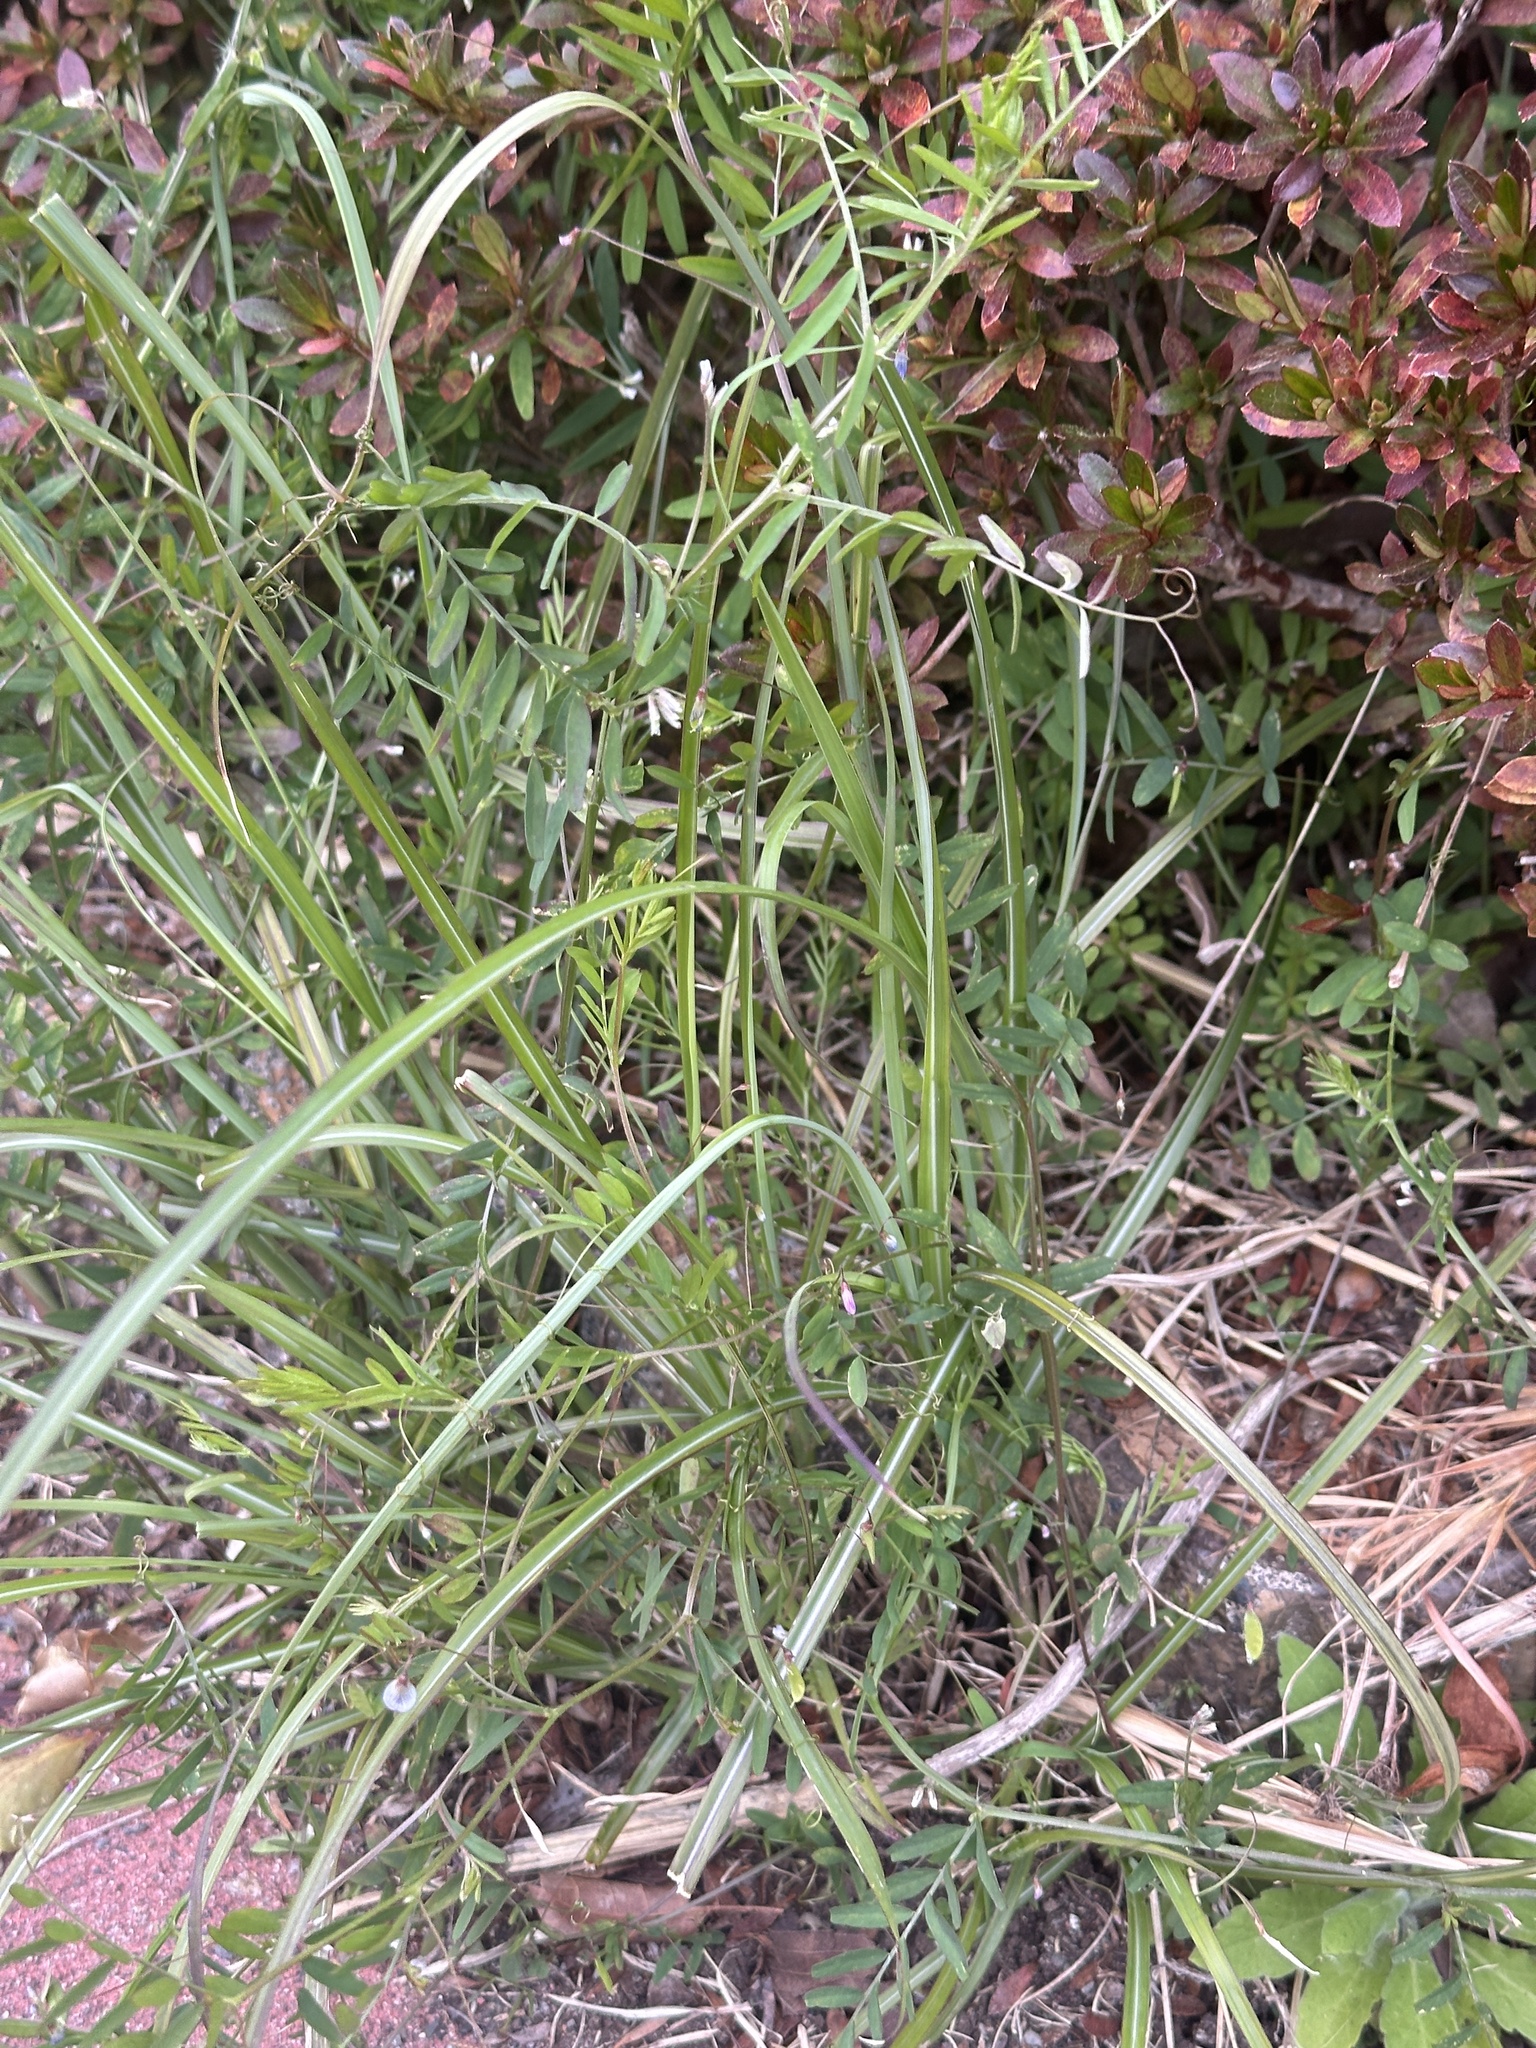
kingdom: Plantae
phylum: Tracheophyta
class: Magnoliopsida
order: Fabales
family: Fabaceae
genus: Vicia
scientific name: Vicia tetrasperma
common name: Smooth tare
